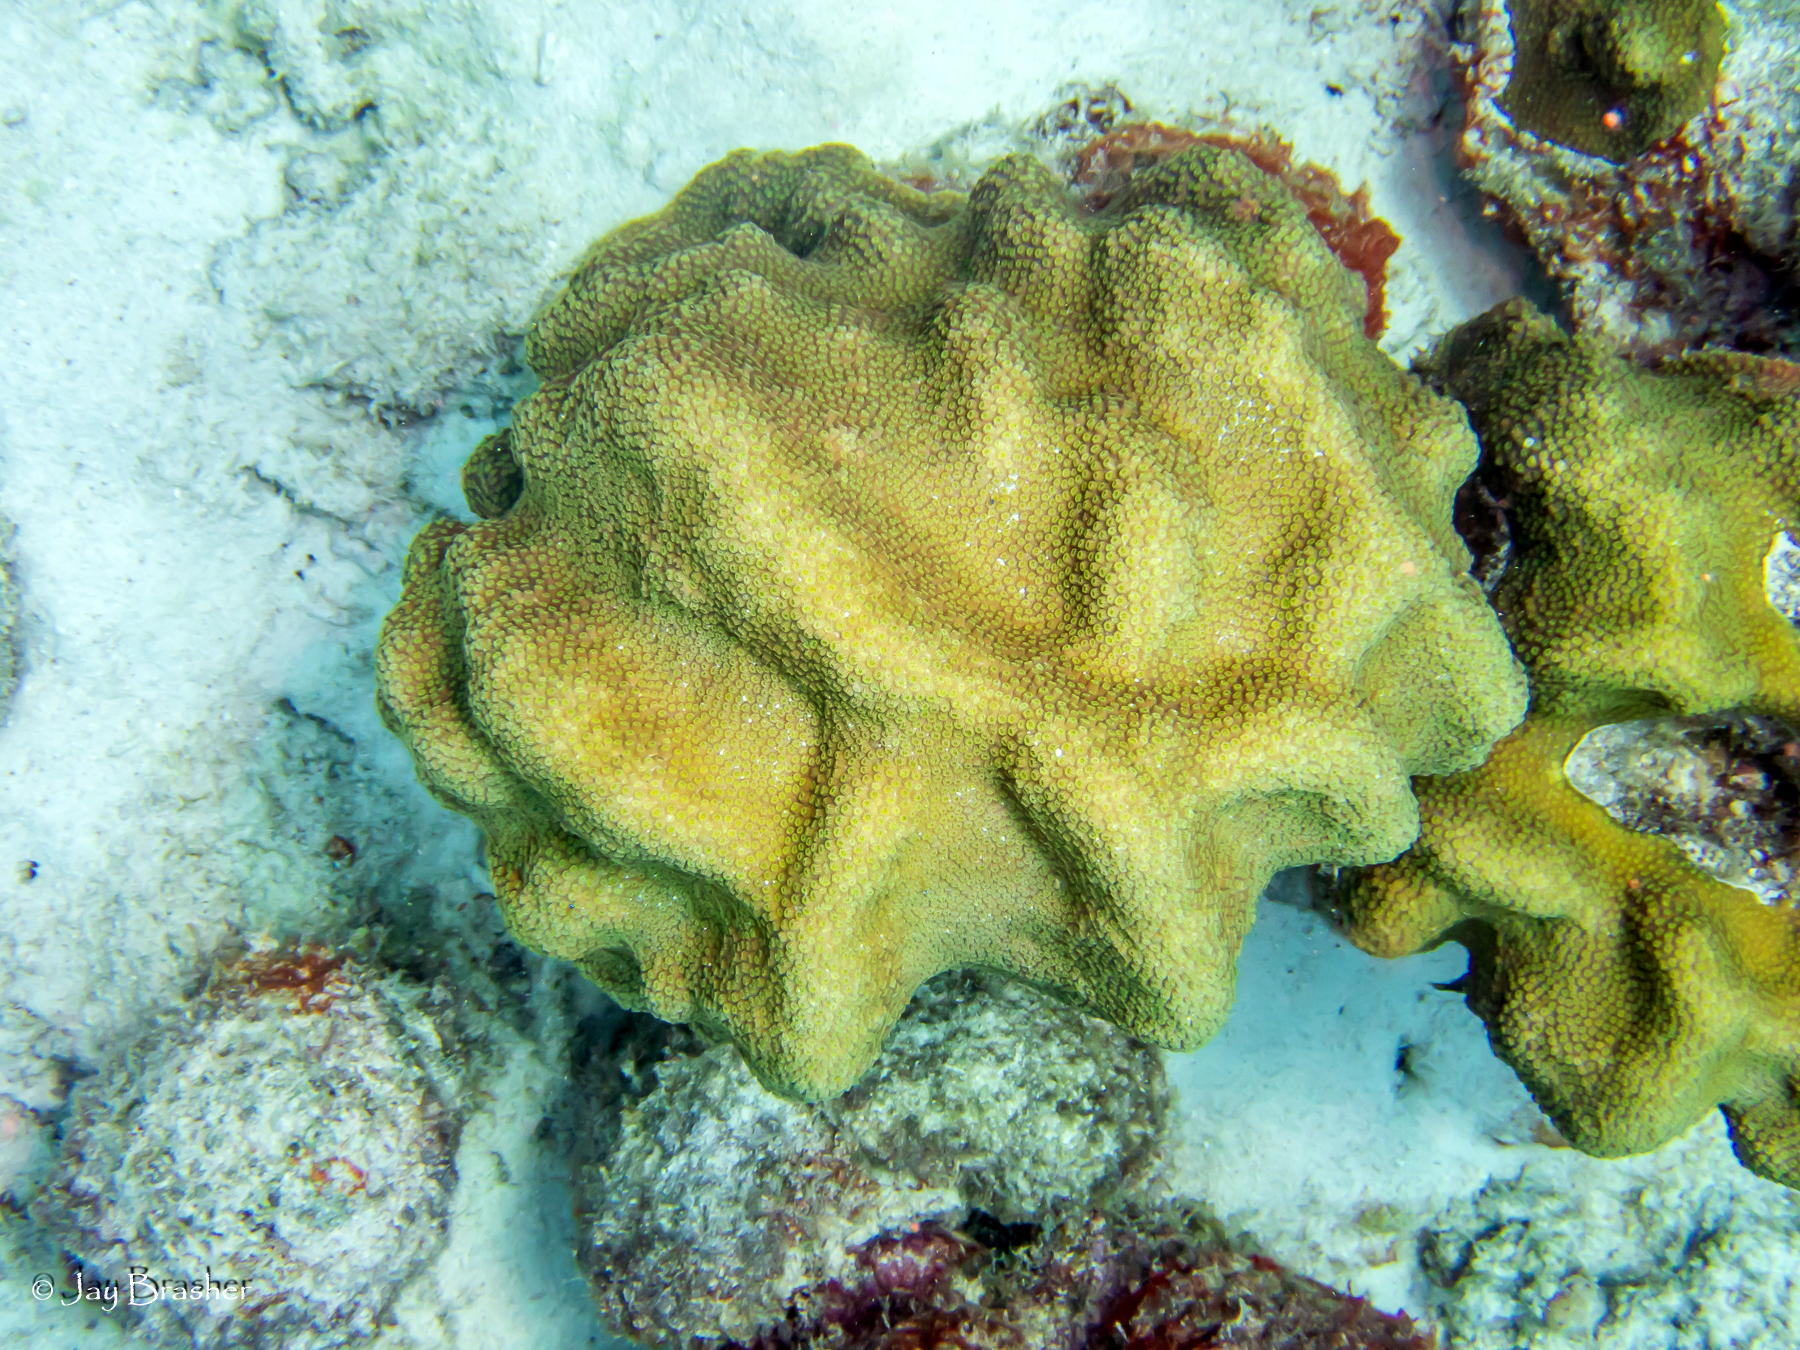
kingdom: Animalia
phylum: Cnidaria
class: Anthozoa
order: Scleractinia
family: Merulinidae
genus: Orbicella
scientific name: Orbicella faveolata
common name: Mountainous star coral
